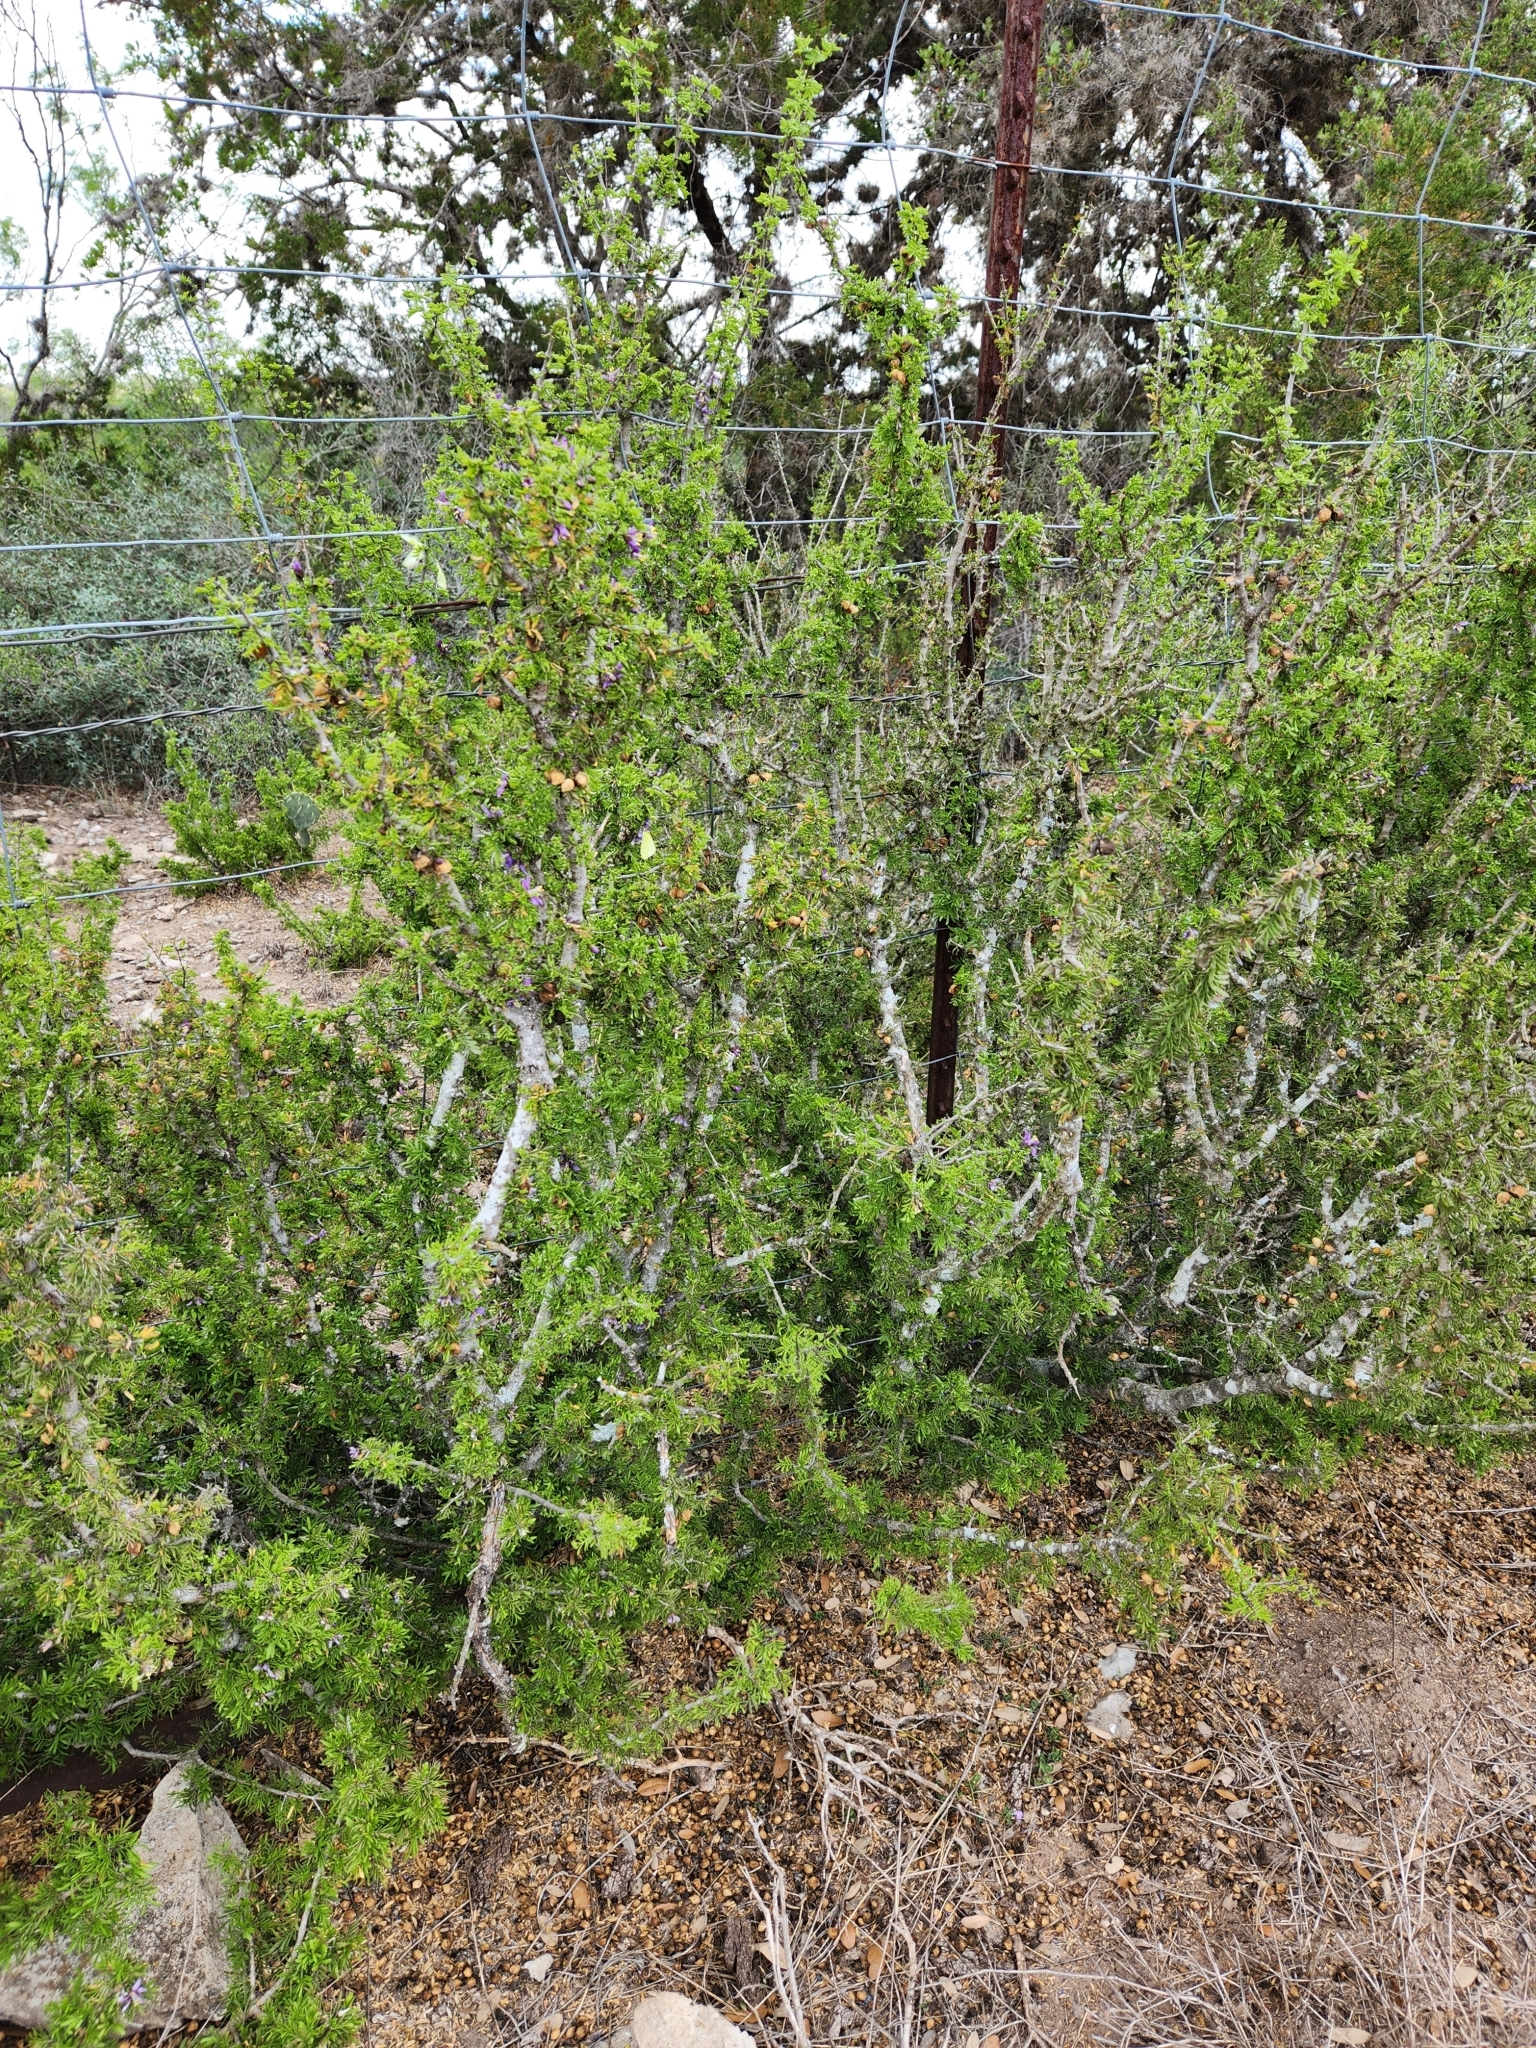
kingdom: Plantae
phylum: Tracheophyta
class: Magnoliopsida
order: Zygophyllales
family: Zygophyllaceae
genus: Porlieria
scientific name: Porlieria angustifolia
